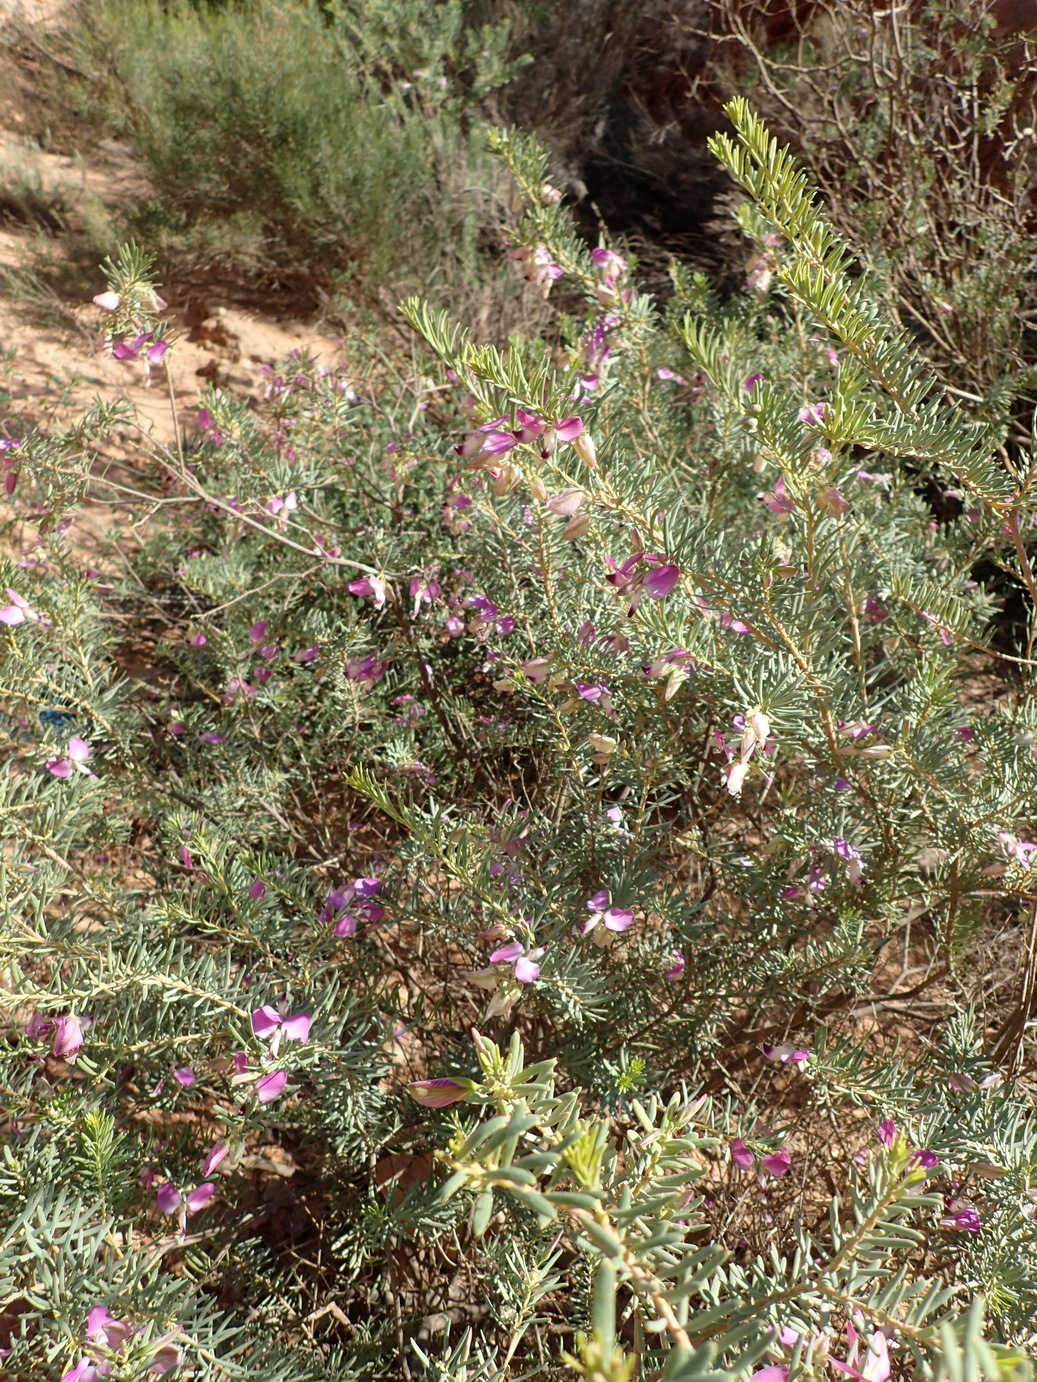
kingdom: Plantae
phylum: Tracheophyta
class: Magnoliopsida
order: Fabales
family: Polygalaceae
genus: Polygala
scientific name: Polygala myrtifolia
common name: Myrtle-leaf milkwort
